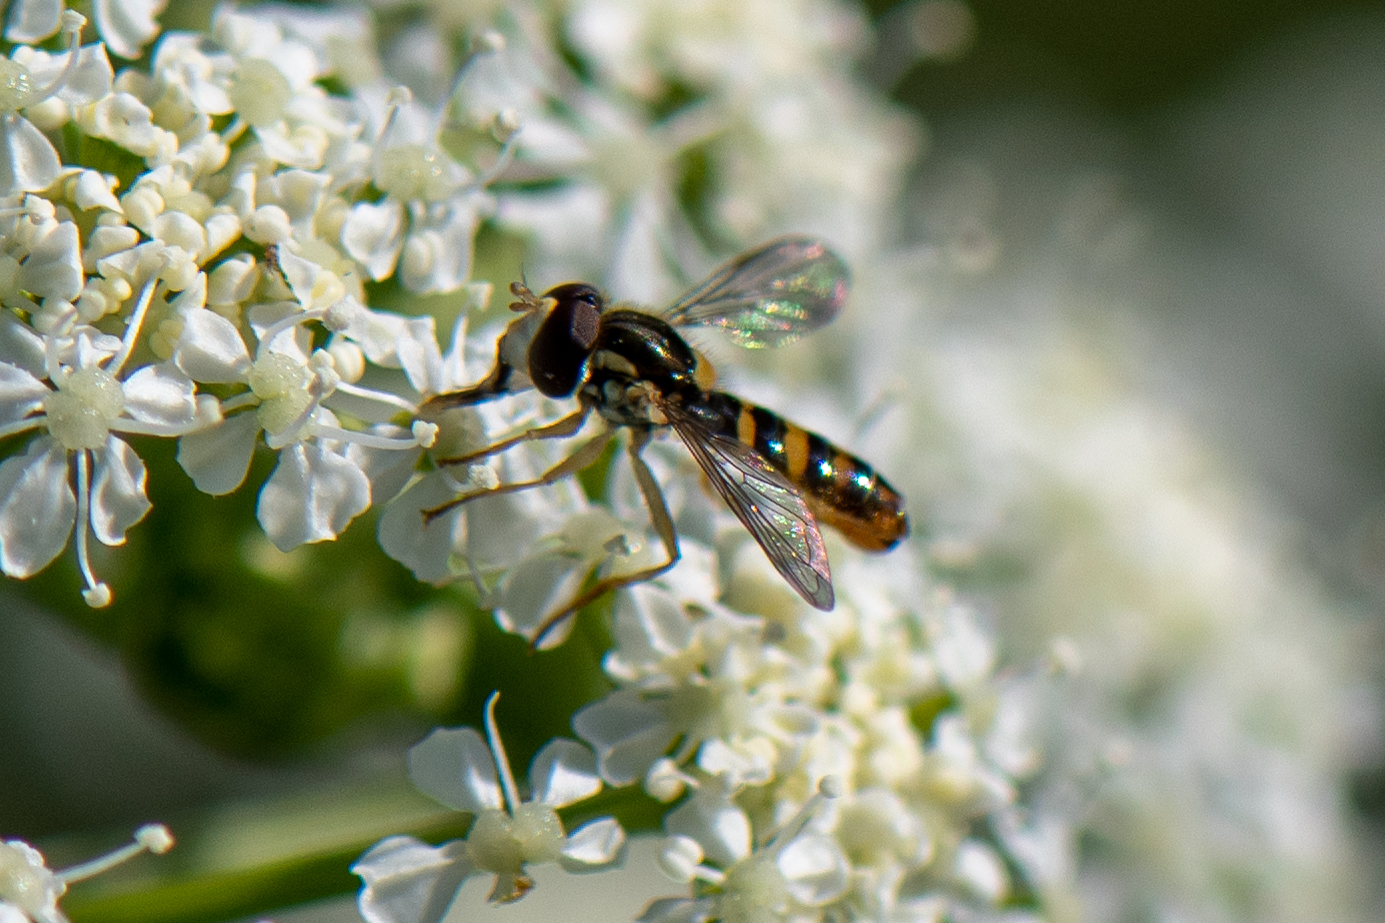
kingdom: Animalia
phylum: Arthropoda
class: Insecta
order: Diptera
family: Syrphidae
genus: Sphaerophoria
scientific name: Sphaerophoria sulphuripes
